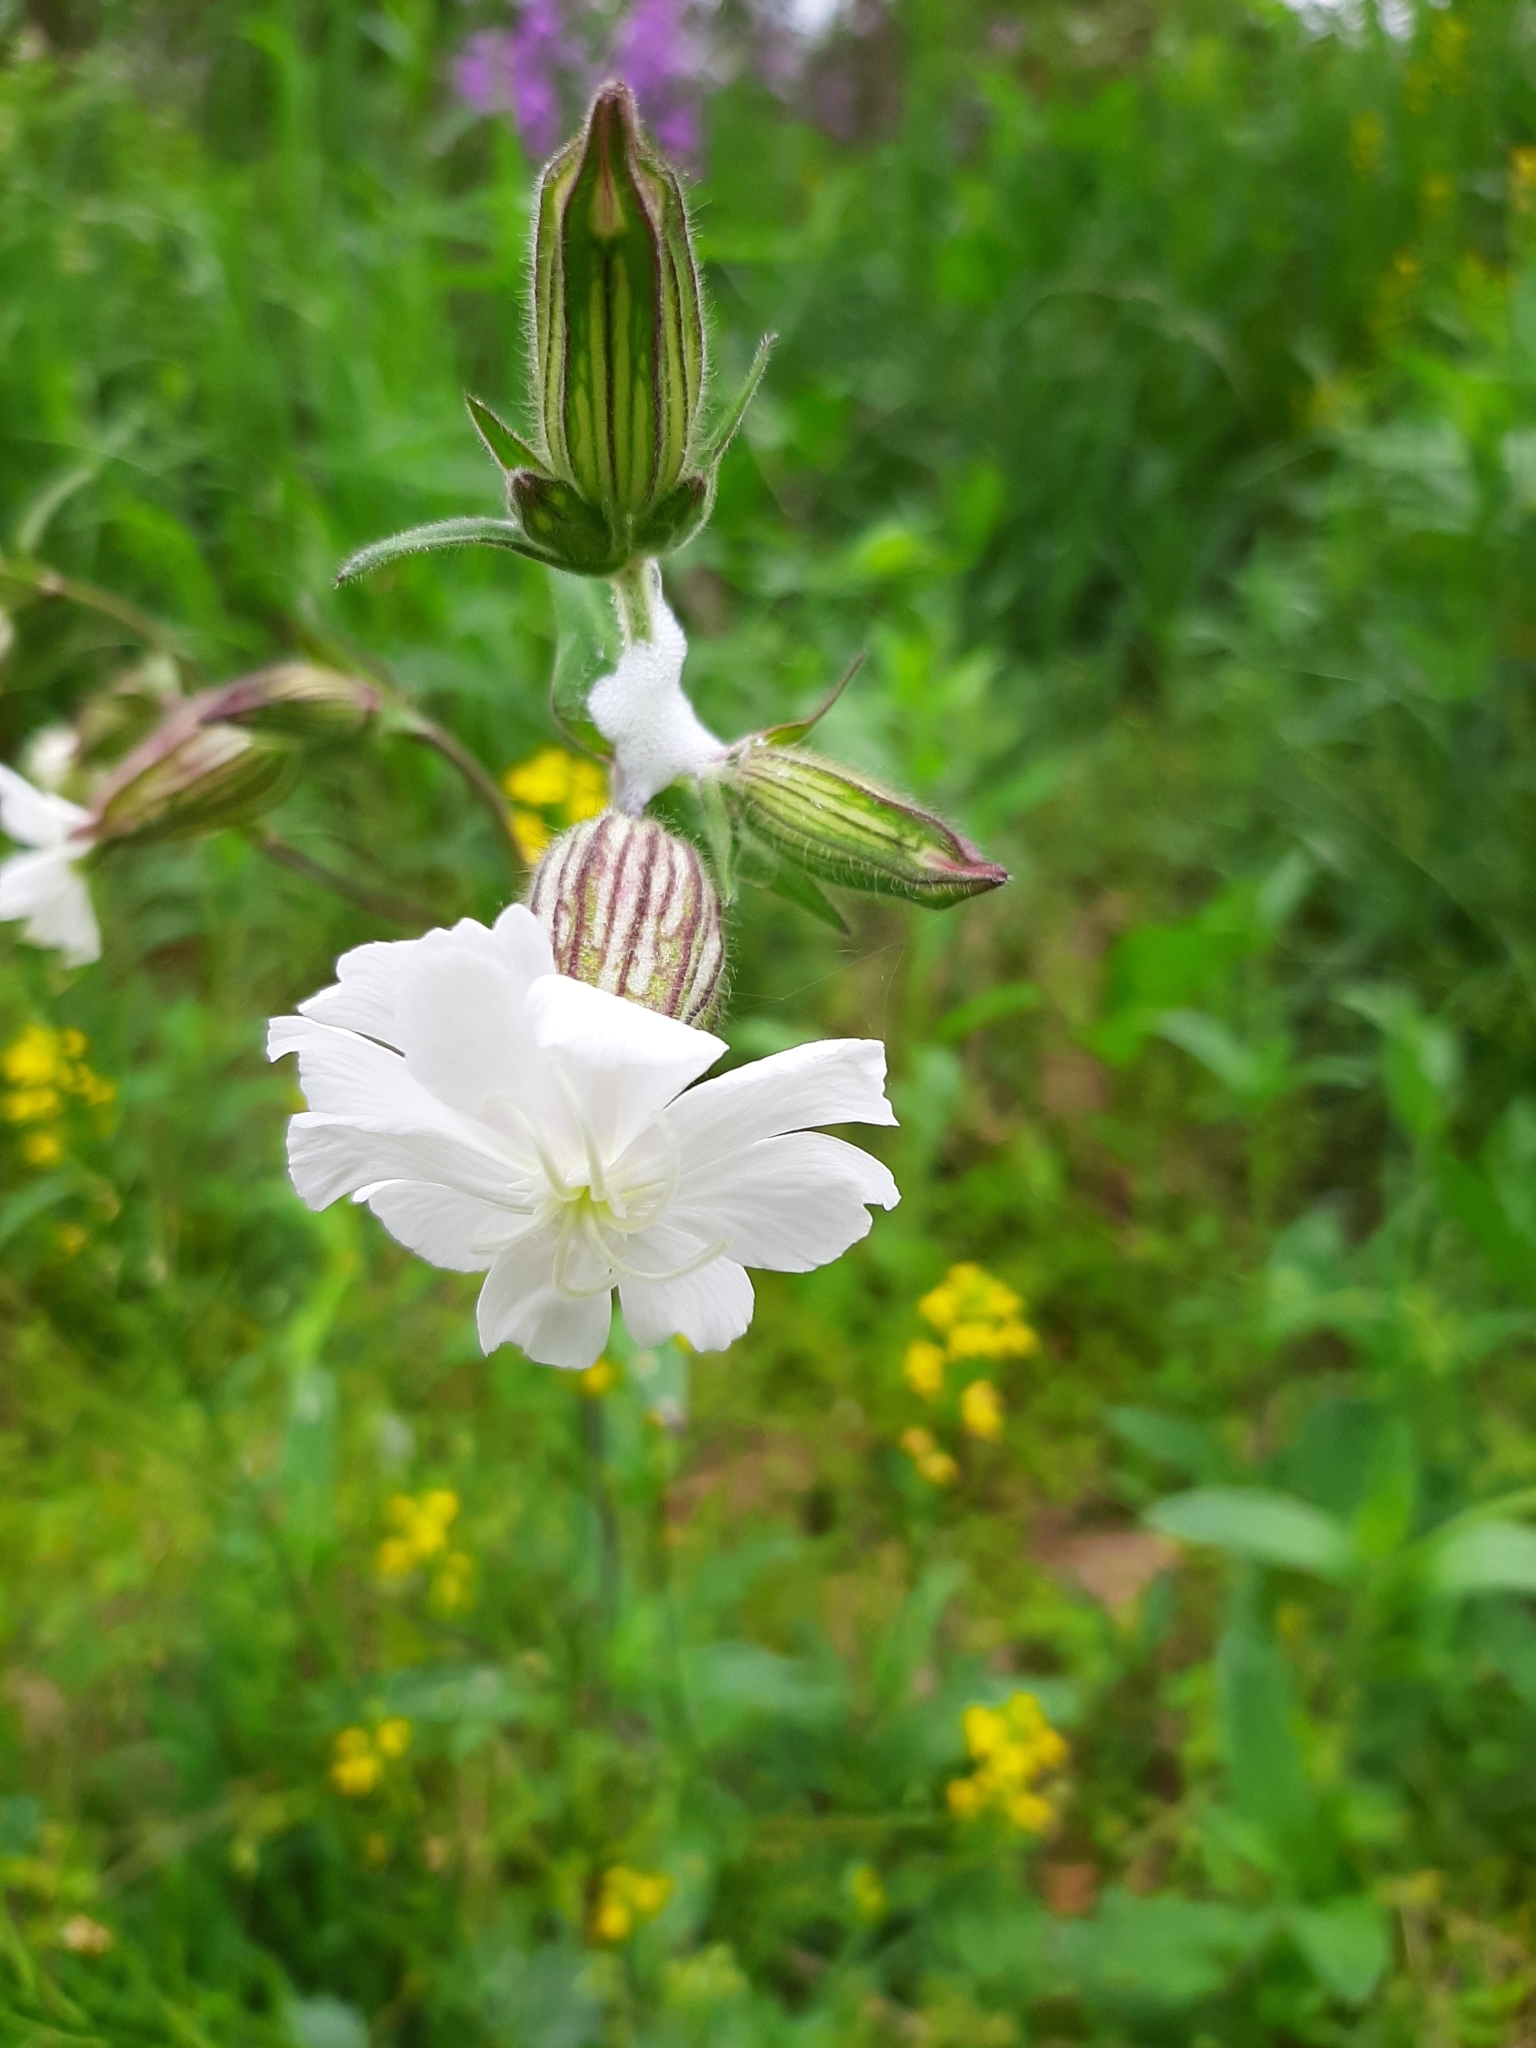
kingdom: Plantae
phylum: Tracheophyta
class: Magnoliopsida
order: Caryophyllales
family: Caryophyllaceae
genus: Silene
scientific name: Silene latifolia
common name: White campion
